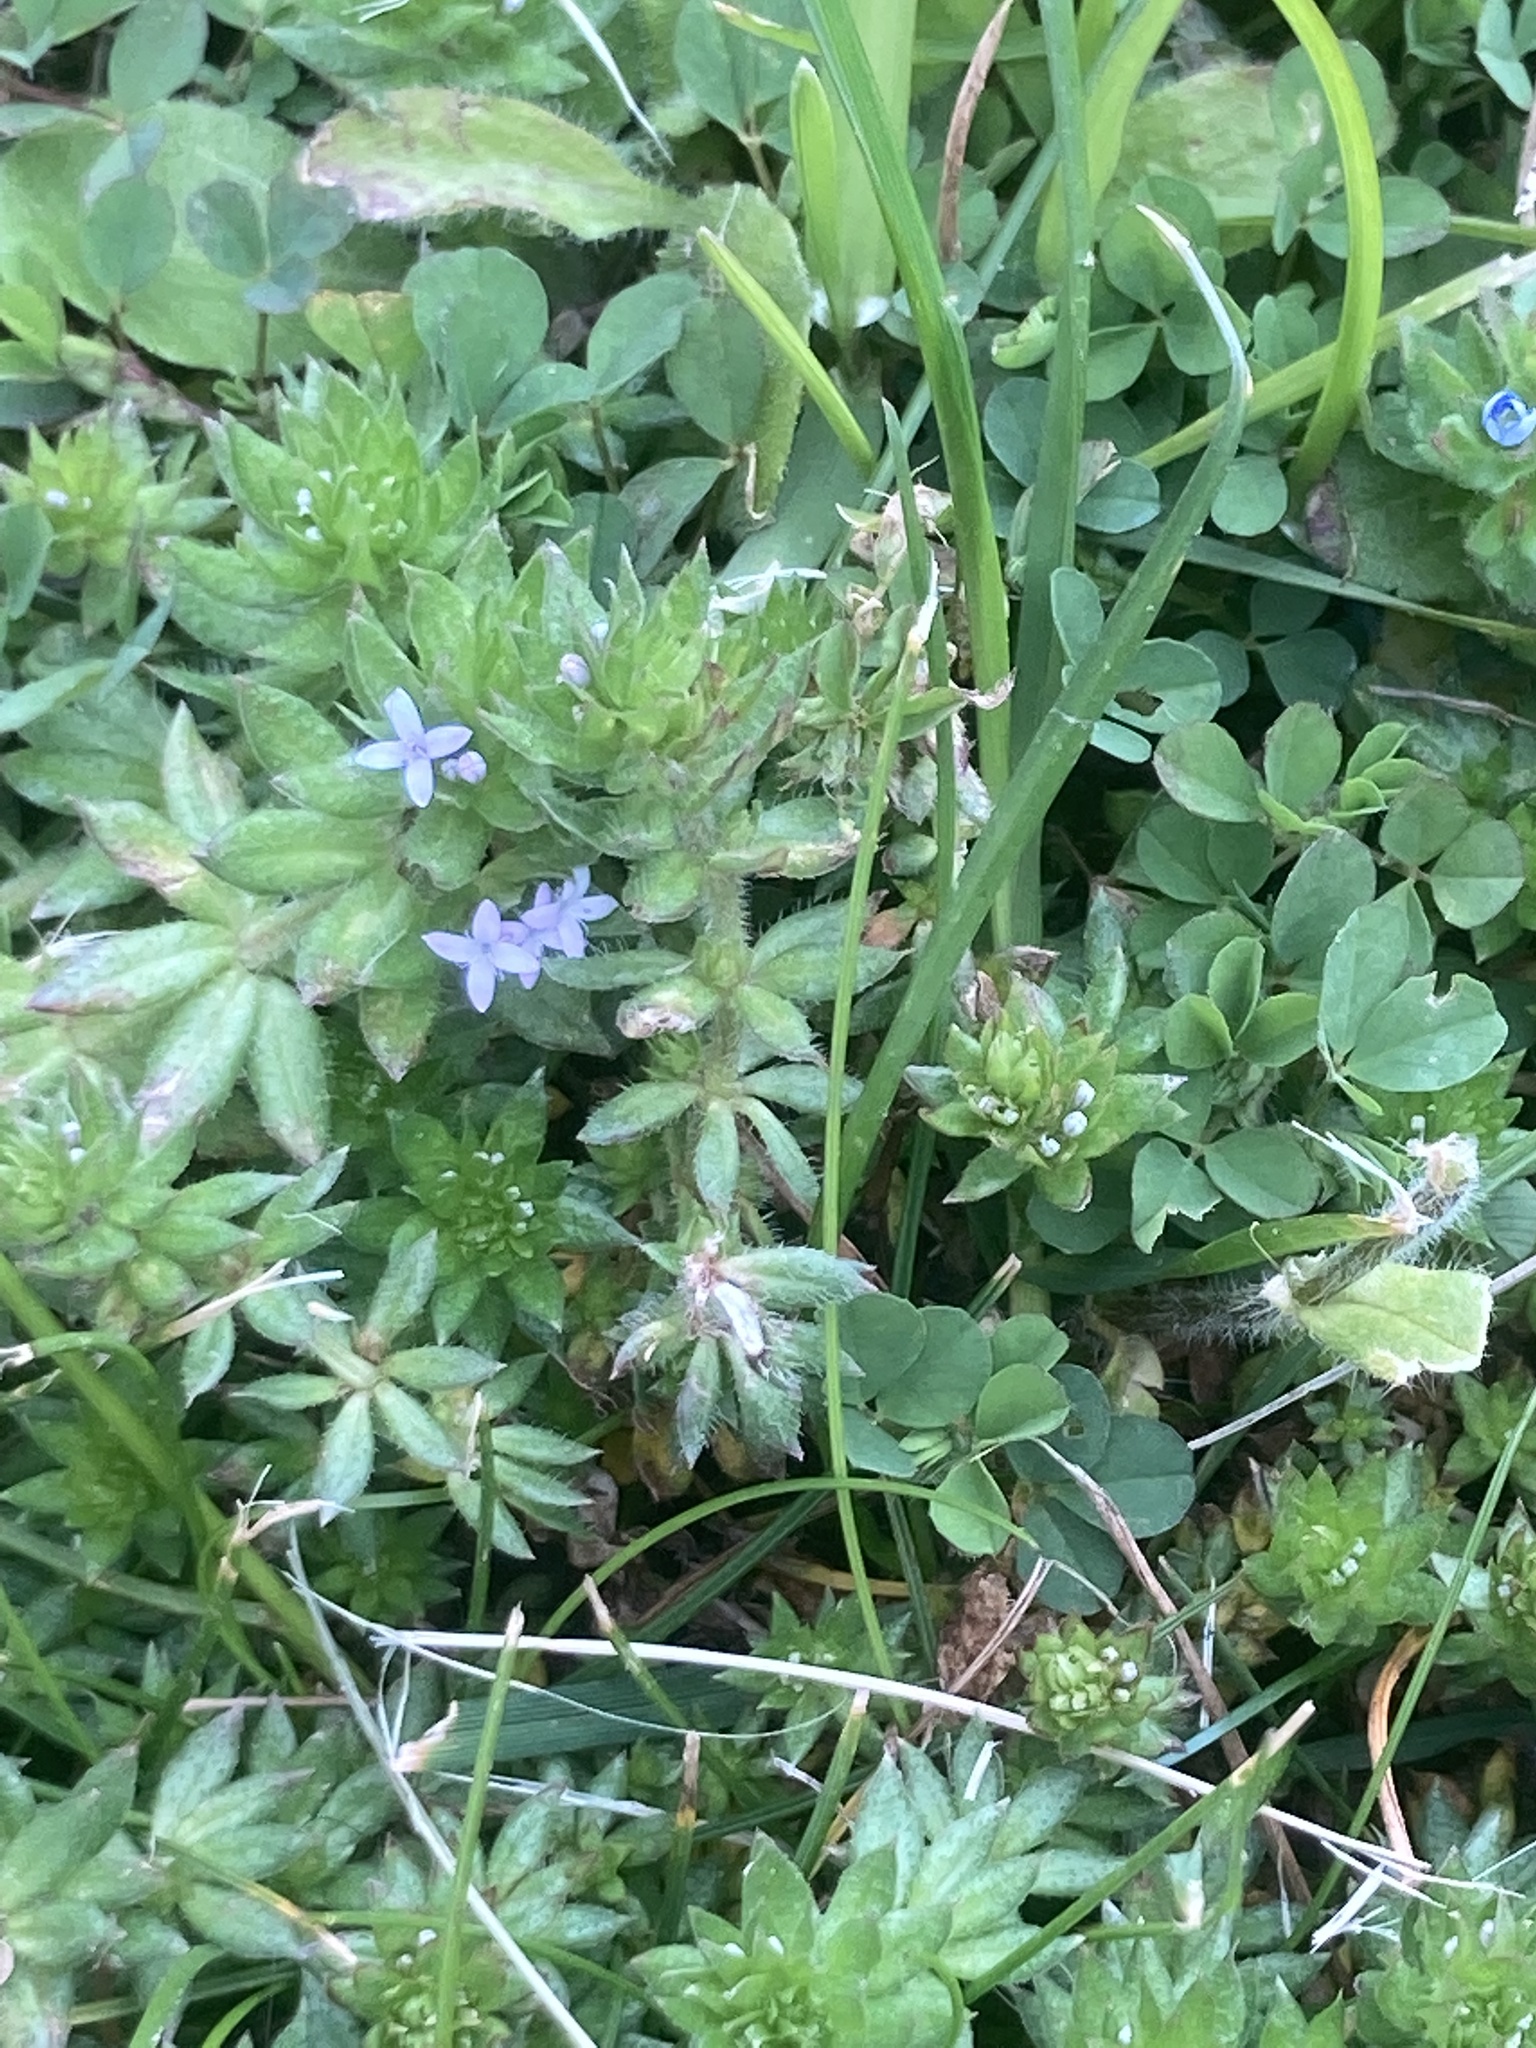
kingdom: Plantae
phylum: Tracheophyta
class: Magnoliopsida
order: Gentianales
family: Rubiaceae
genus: Sherardia
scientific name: Sherardia arvensis
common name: Field madder
